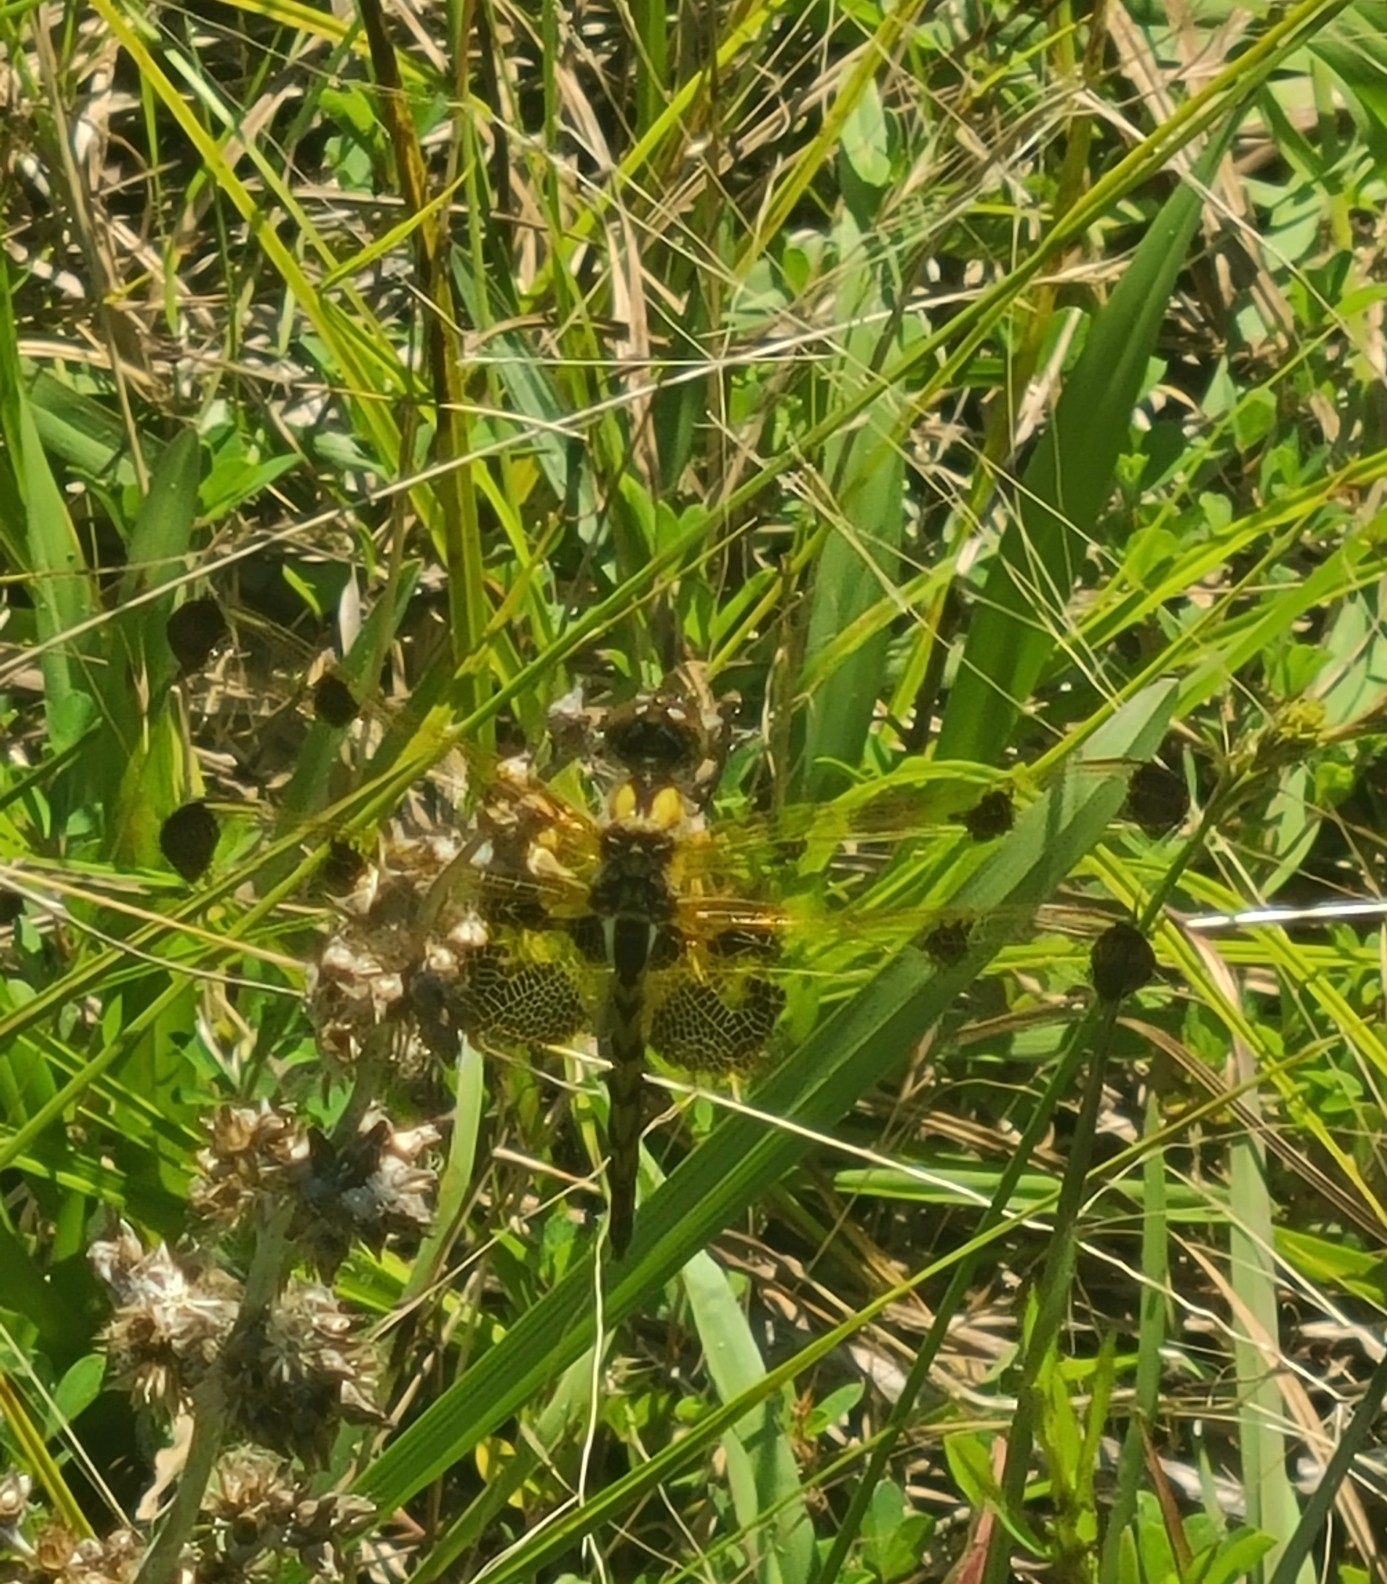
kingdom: Animalia
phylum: Arthropoda
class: Insecta
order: Odonata
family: Libellulidae
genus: Celithemis
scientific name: Celithemis elisa
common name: Calico pennant
